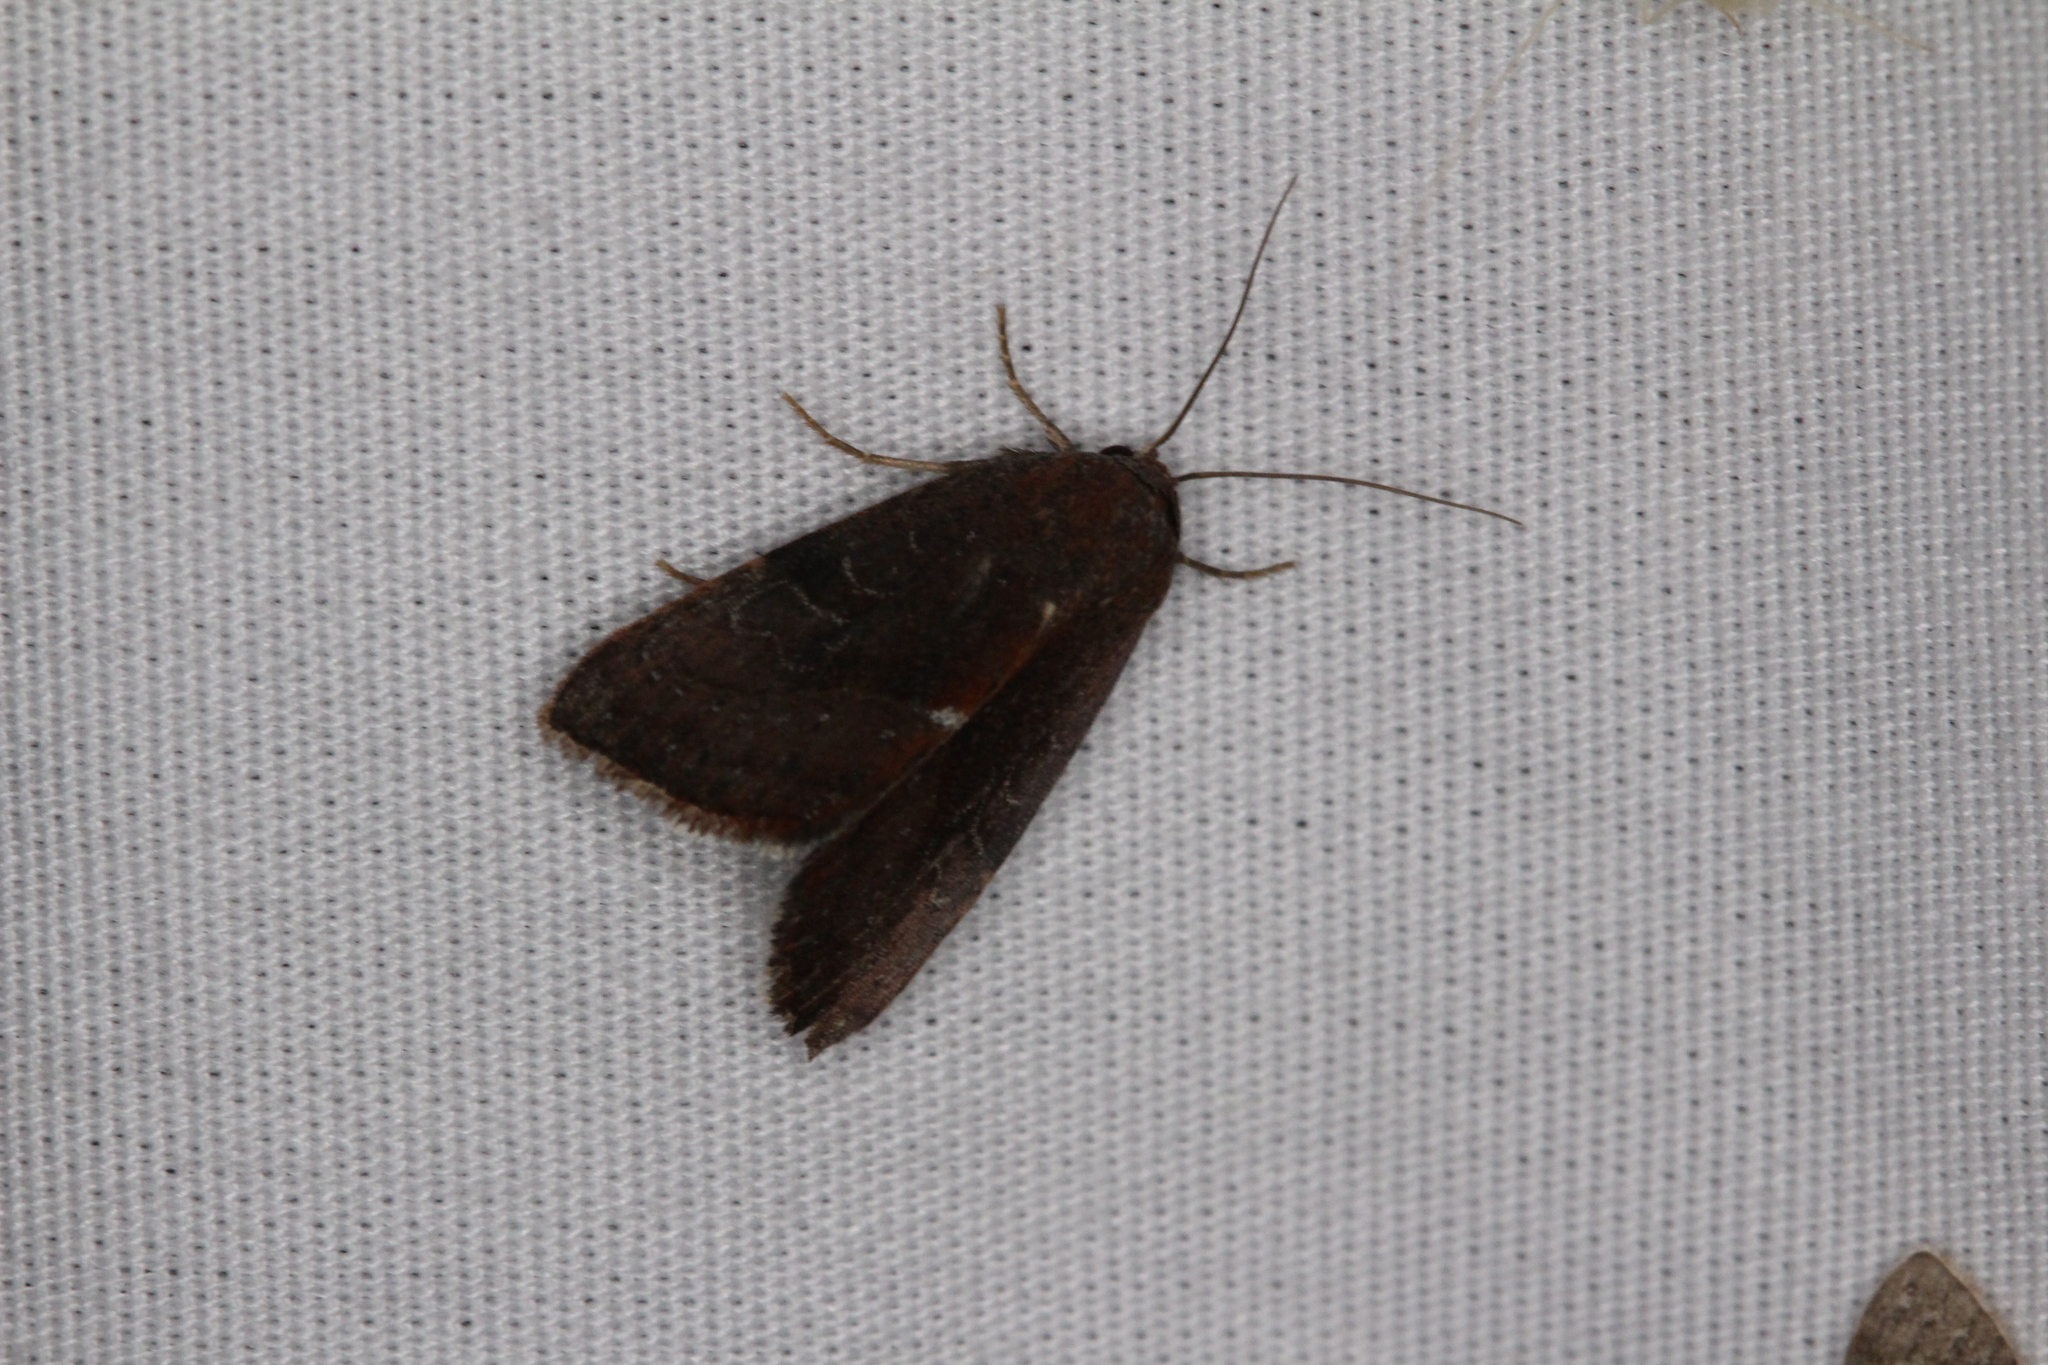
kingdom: Animalia
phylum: Arthropoda
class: Insecta
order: Lepidoptera
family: Noctuidae
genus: Galgula
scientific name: Galgula partita
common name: Wedgeling
